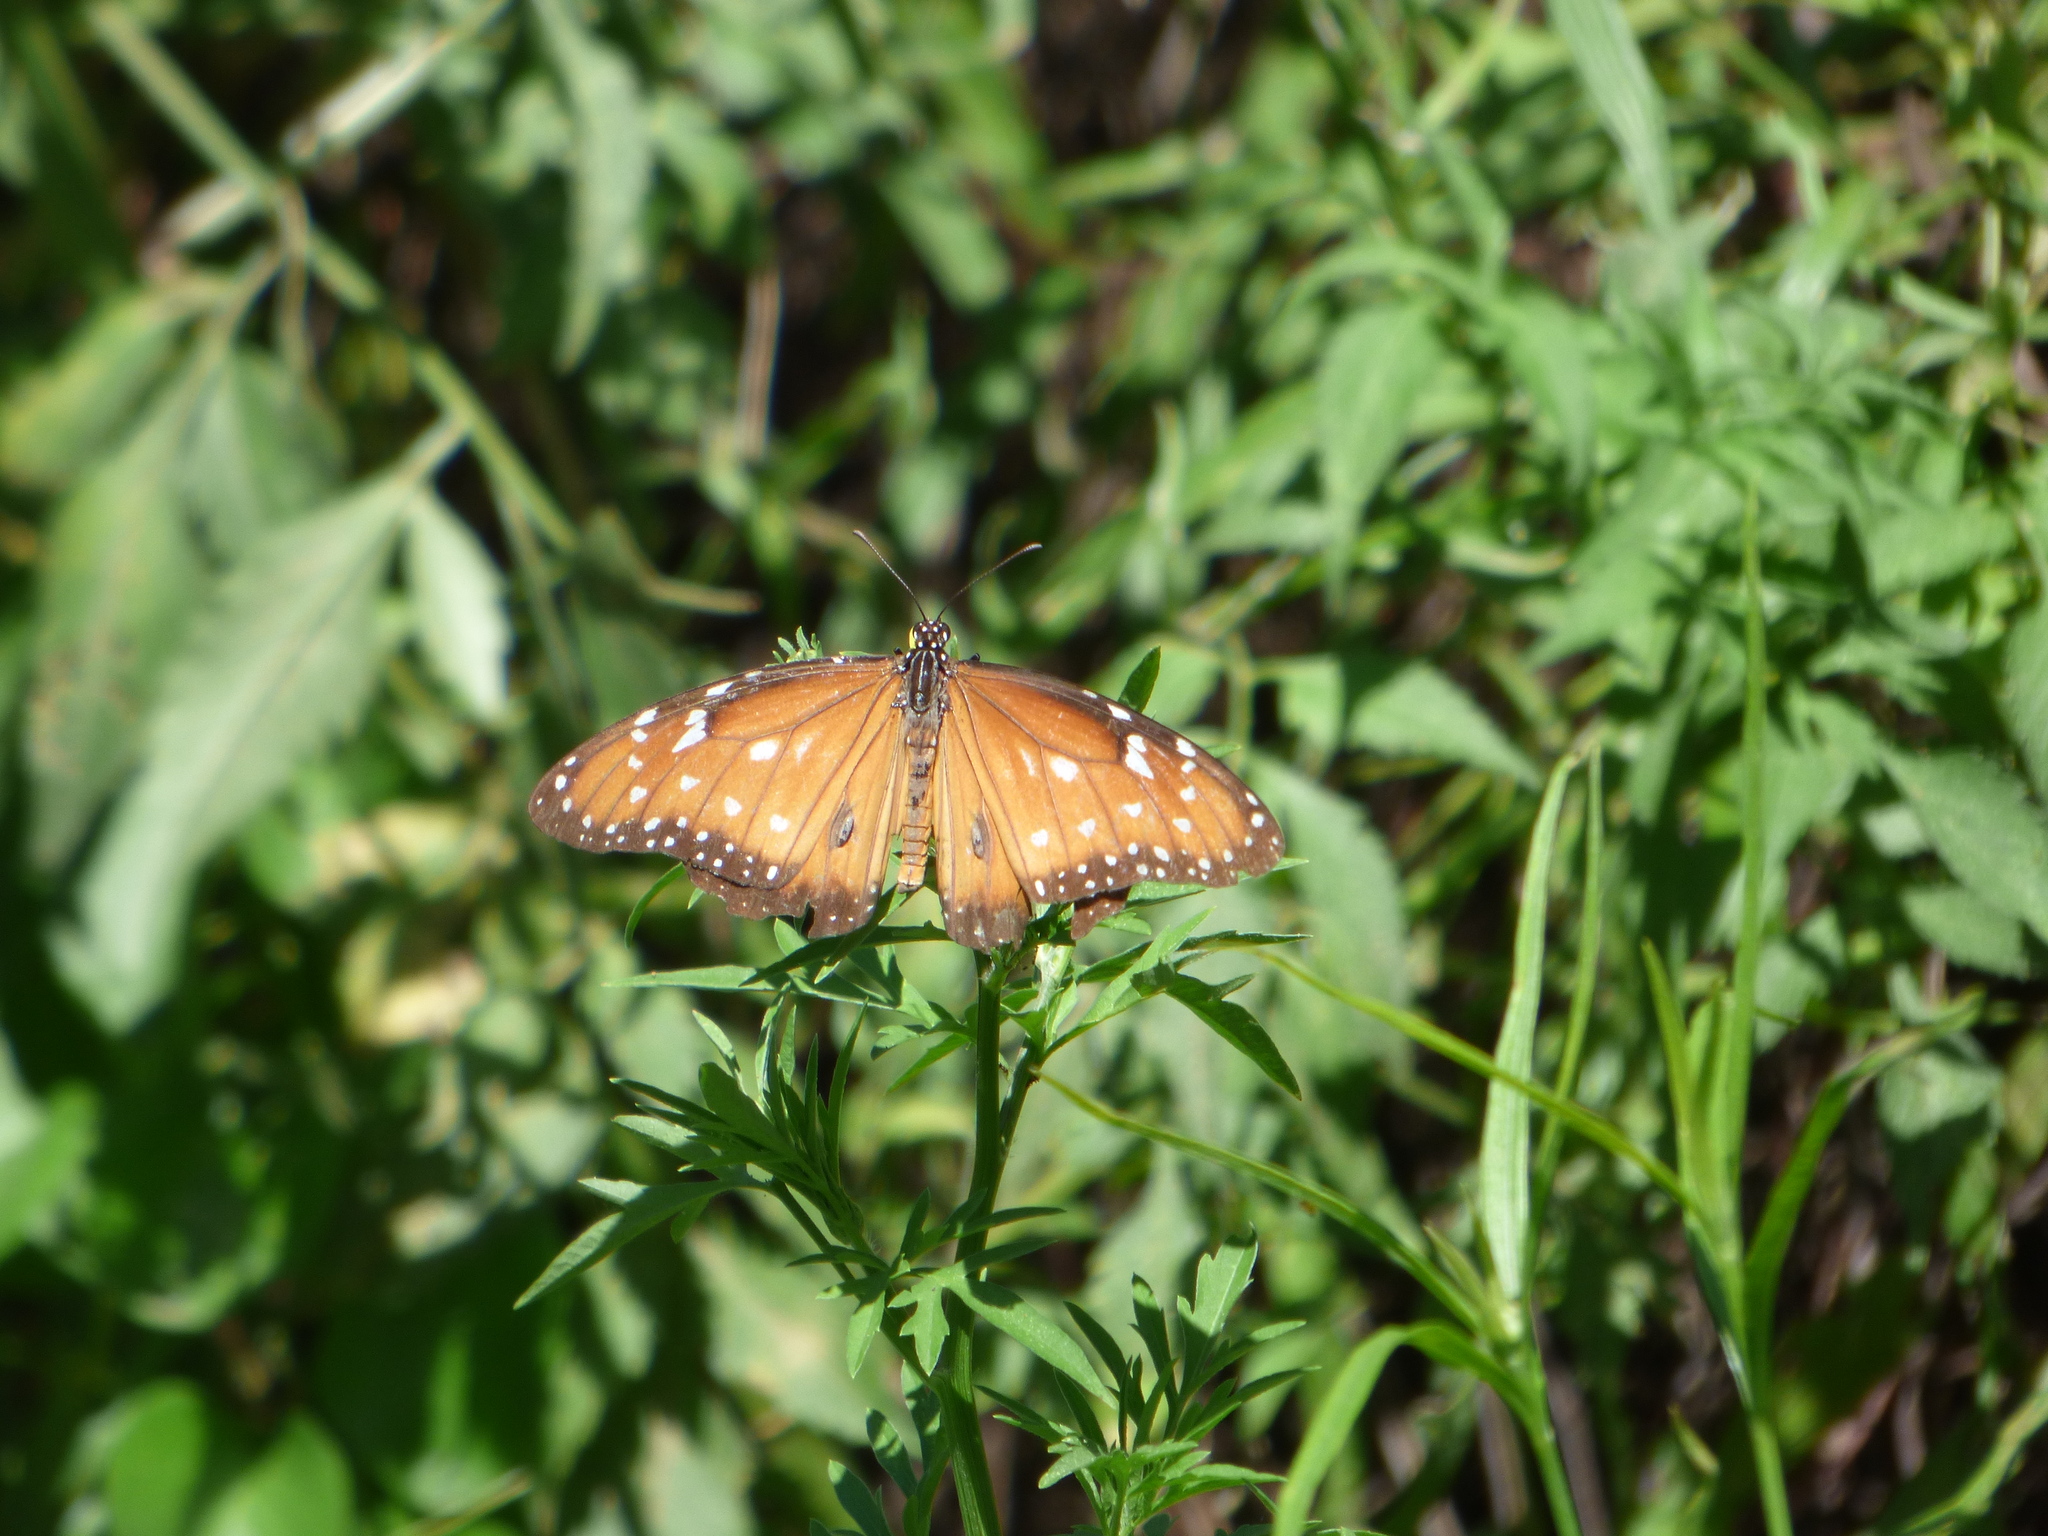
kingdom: Animalia
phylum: Arthropoda
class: Insecta
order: Lepidoptera
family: Nymphalidae
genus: Danaus
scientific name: Danaus eresimus
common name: Soldier
